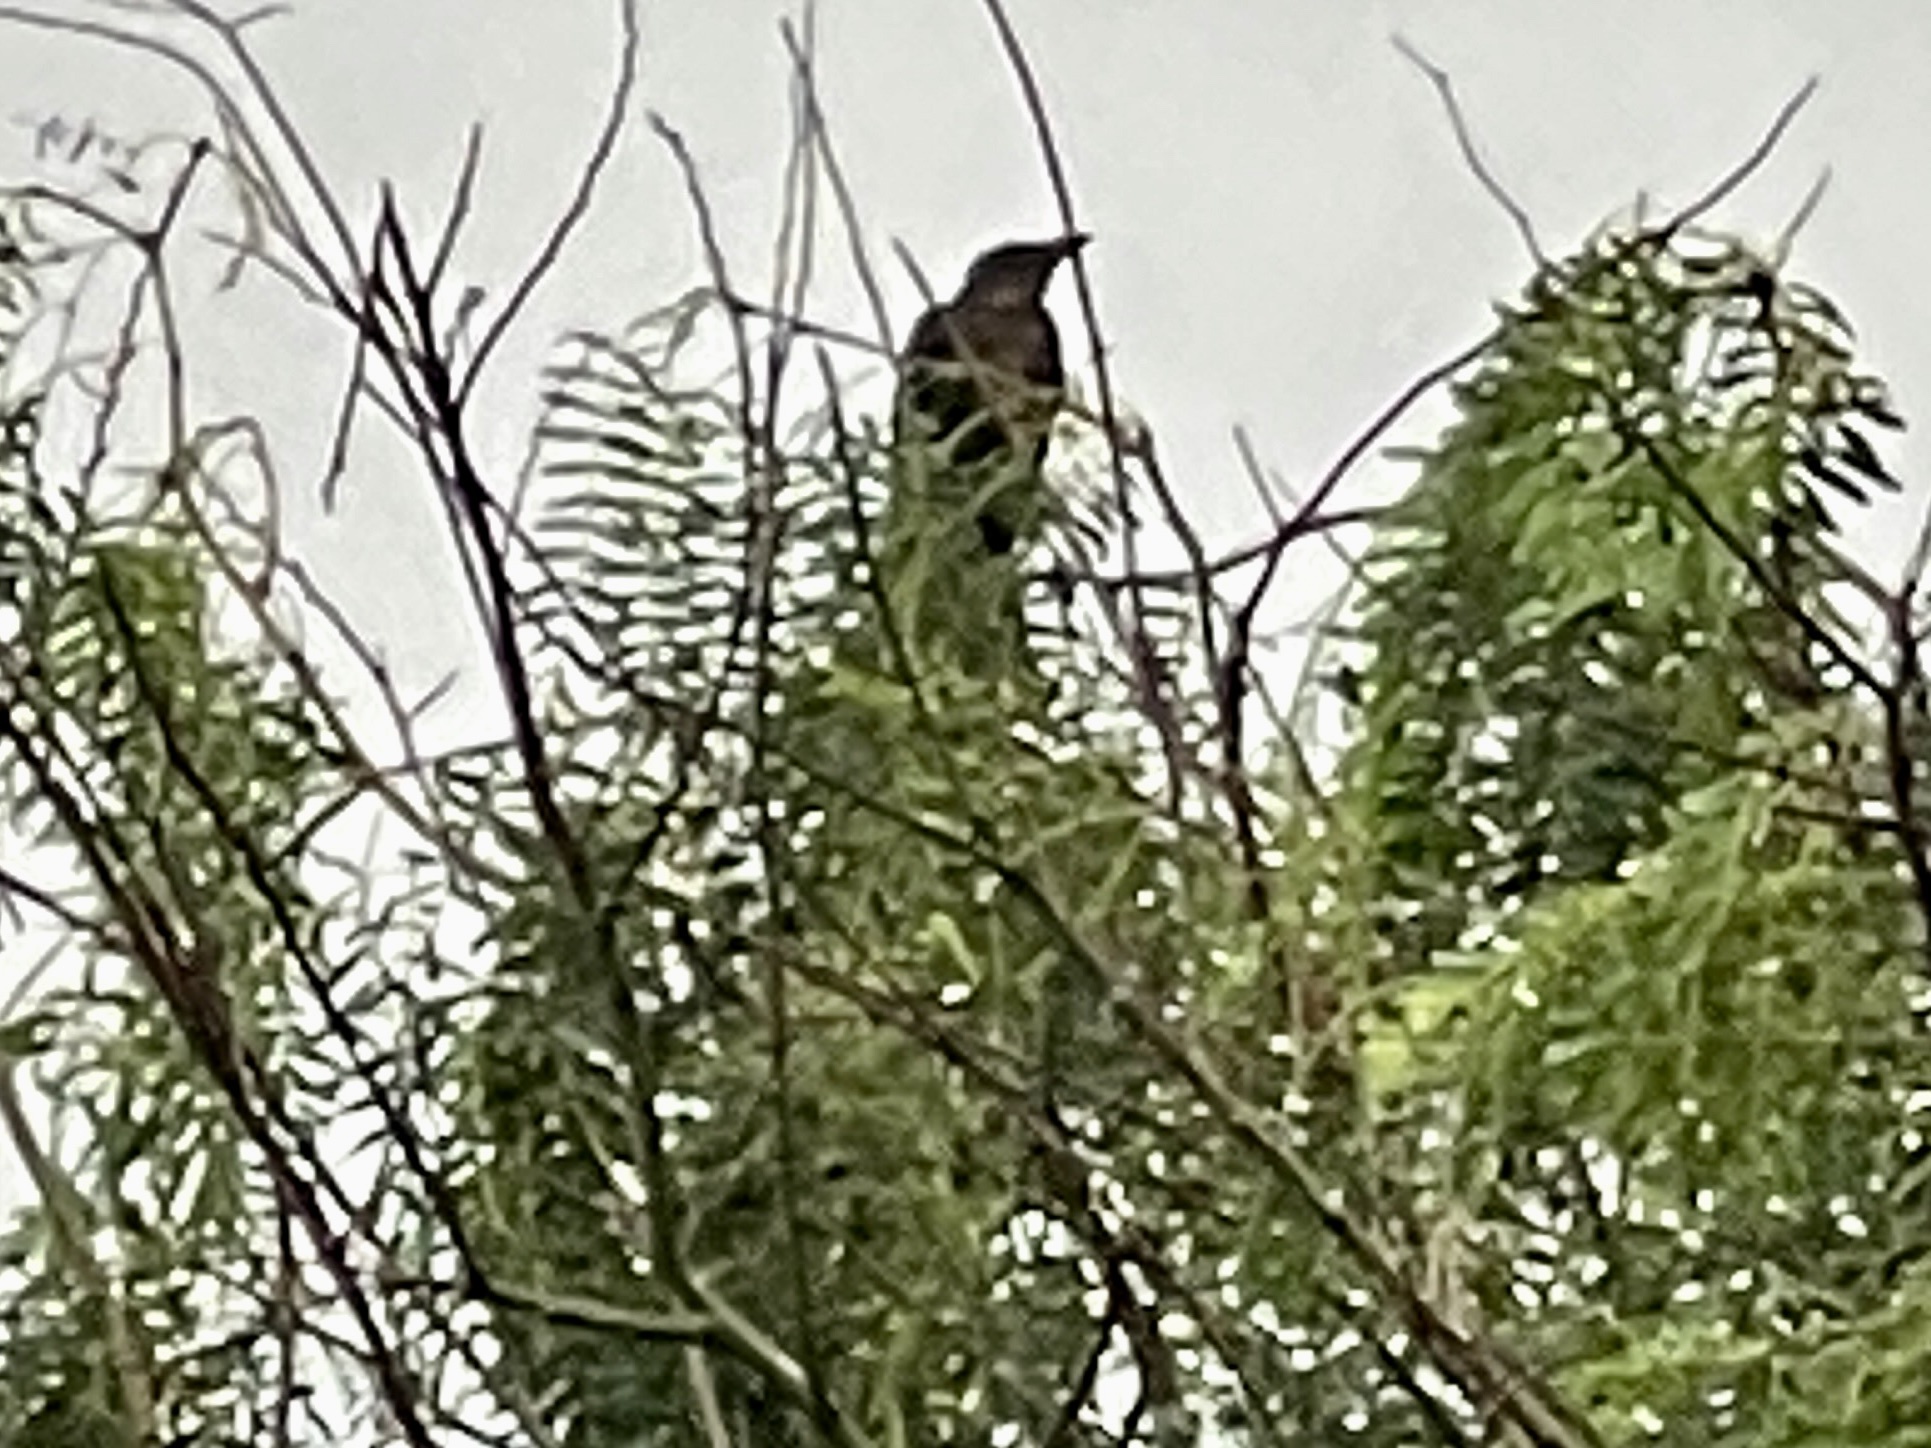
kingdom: Animalia
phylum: Chordata
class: Aves
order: Passeriformes
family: Icteridae
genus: Quiscalus
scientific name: Quiscalus mexicanus
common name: Great-tailed grackle
